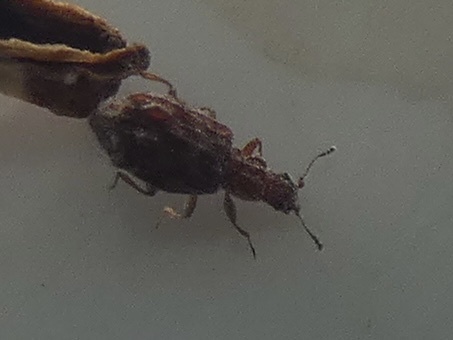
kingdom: Animalia
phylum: Arthropoda
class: Insecta
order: Coleoptera
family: Latridiidae
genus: Cartodere
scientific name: Cartodere nodifer
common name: Humpbacked minute scavenger beetle
